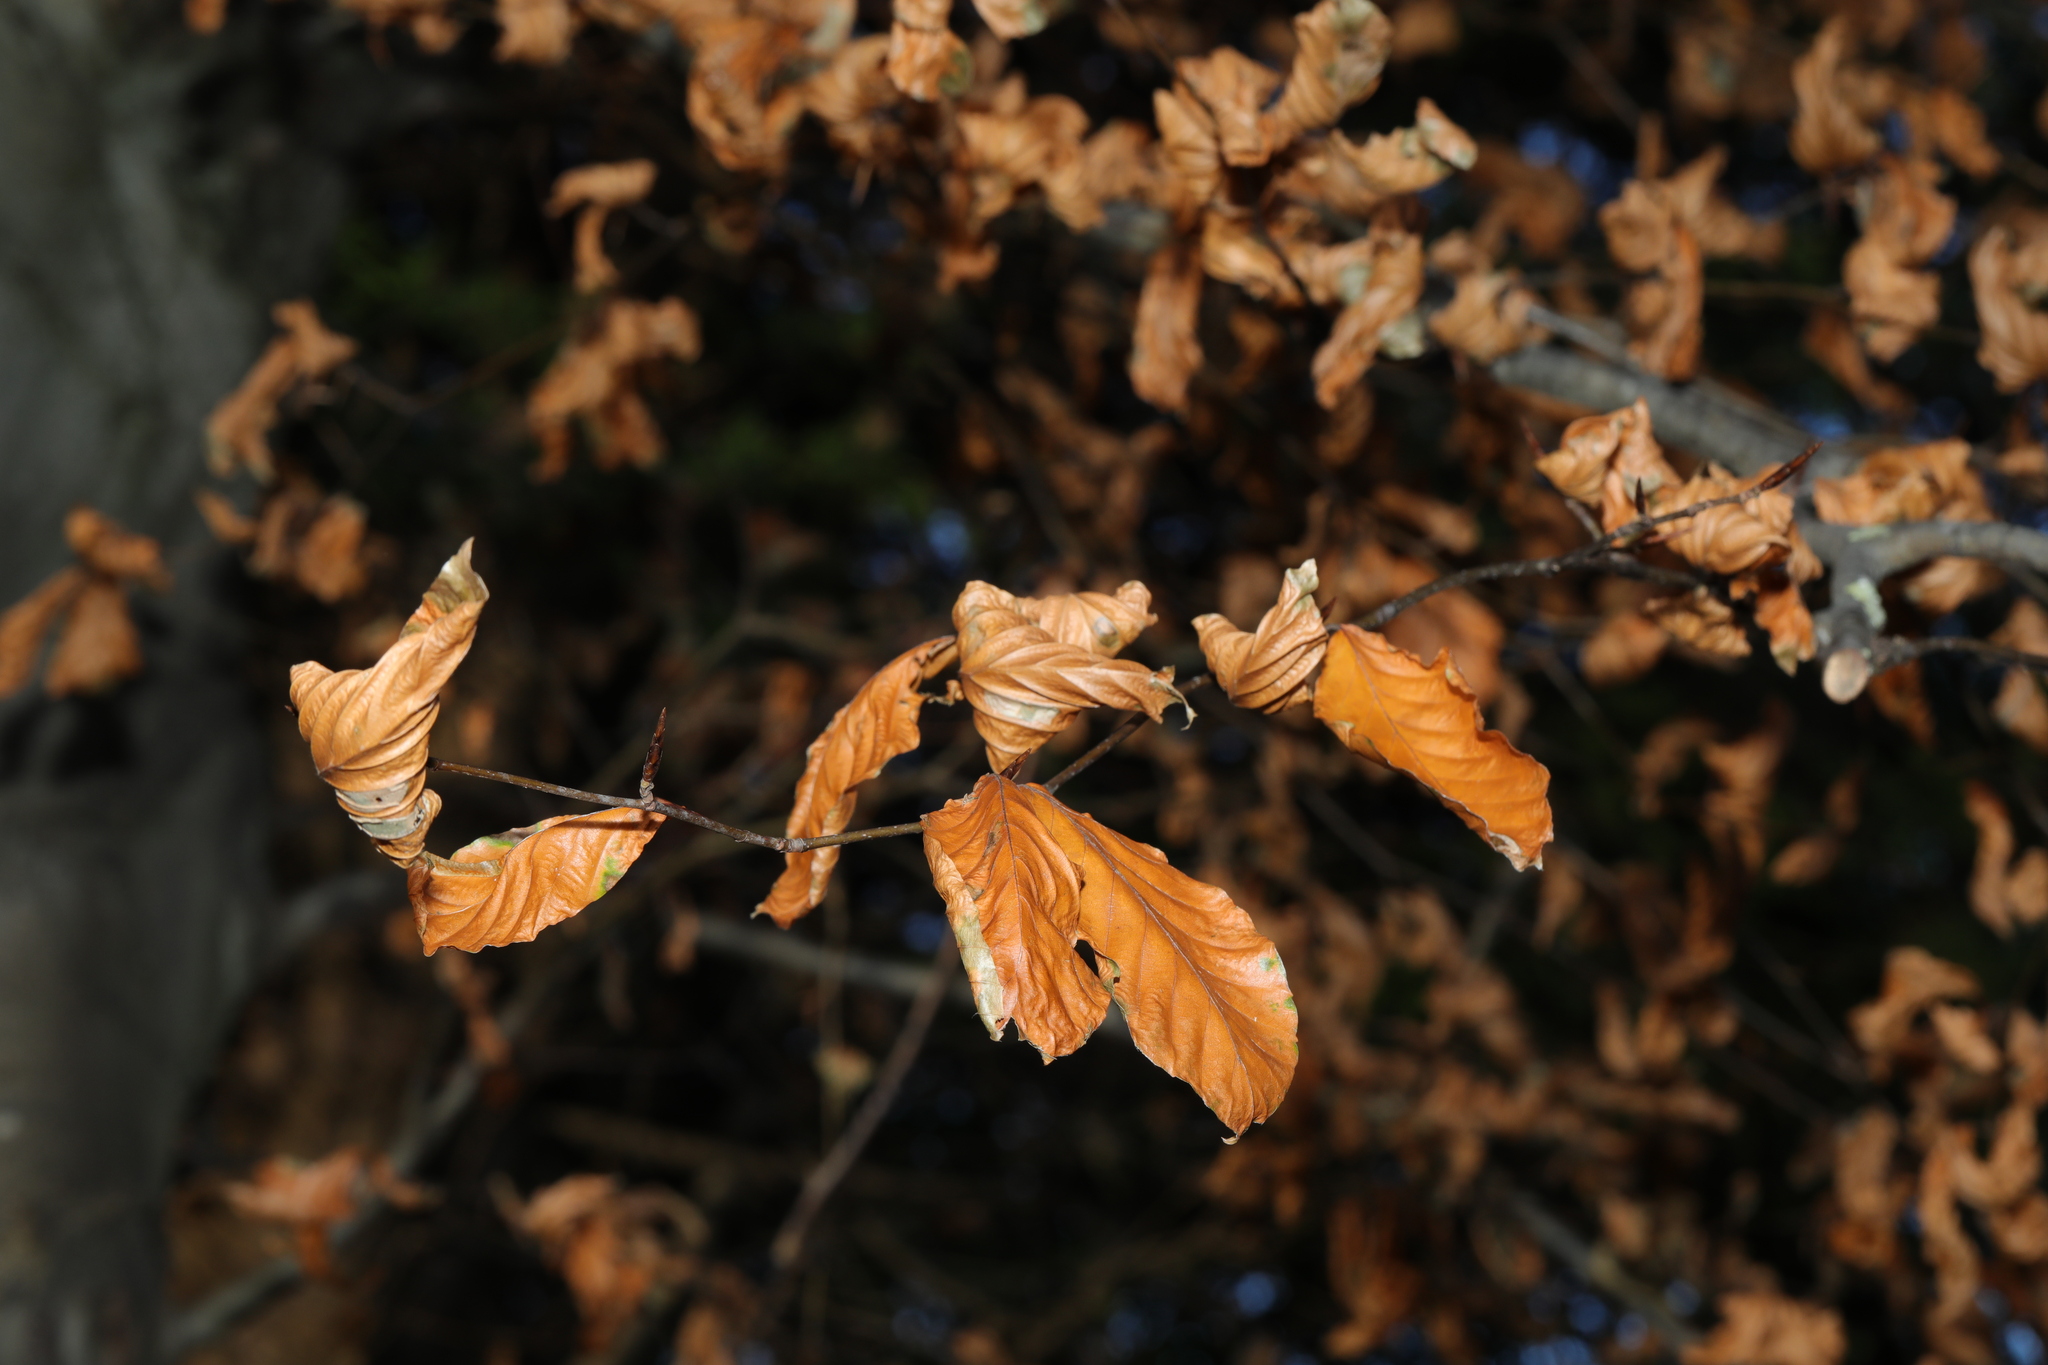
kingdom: Plantae
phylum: Tracheophyta
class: Magnoliopsida
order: Fagales
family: Fagaceae
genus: Fagus
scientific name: Fagus sylvatica
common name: Beech
